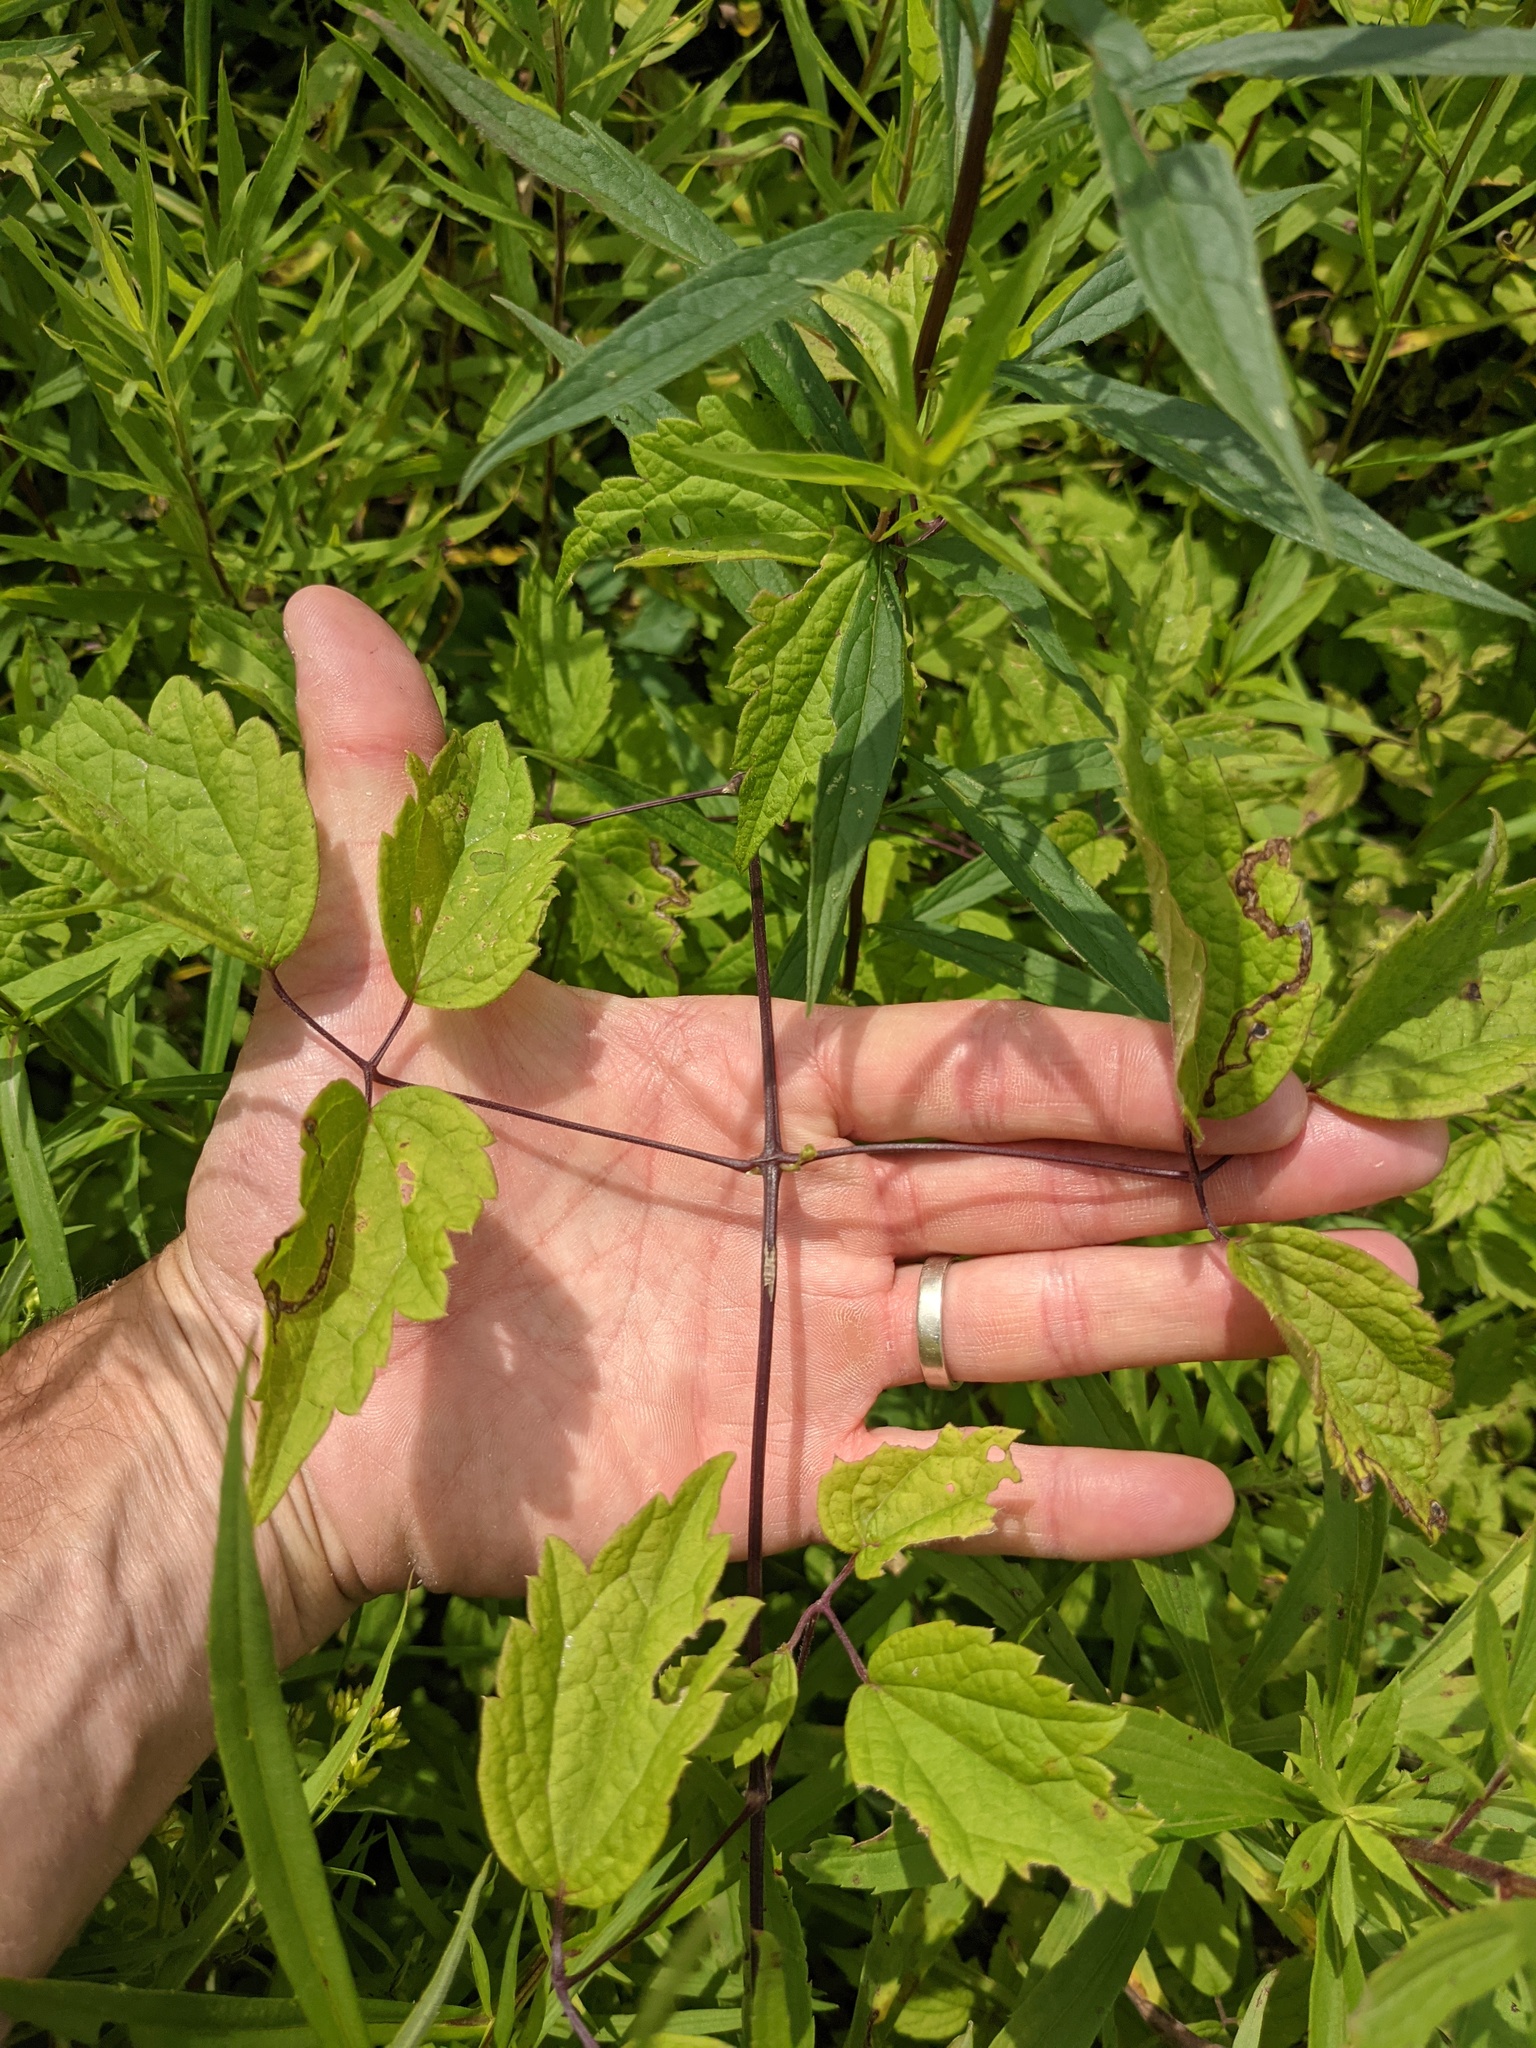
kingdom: Plantae
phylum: Tracheophyta
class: Magnoliopsida
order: Ranunculales
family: Ranunculaceae
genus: Clematis
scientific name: Clematis virginiana
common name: Virgin's-bower
